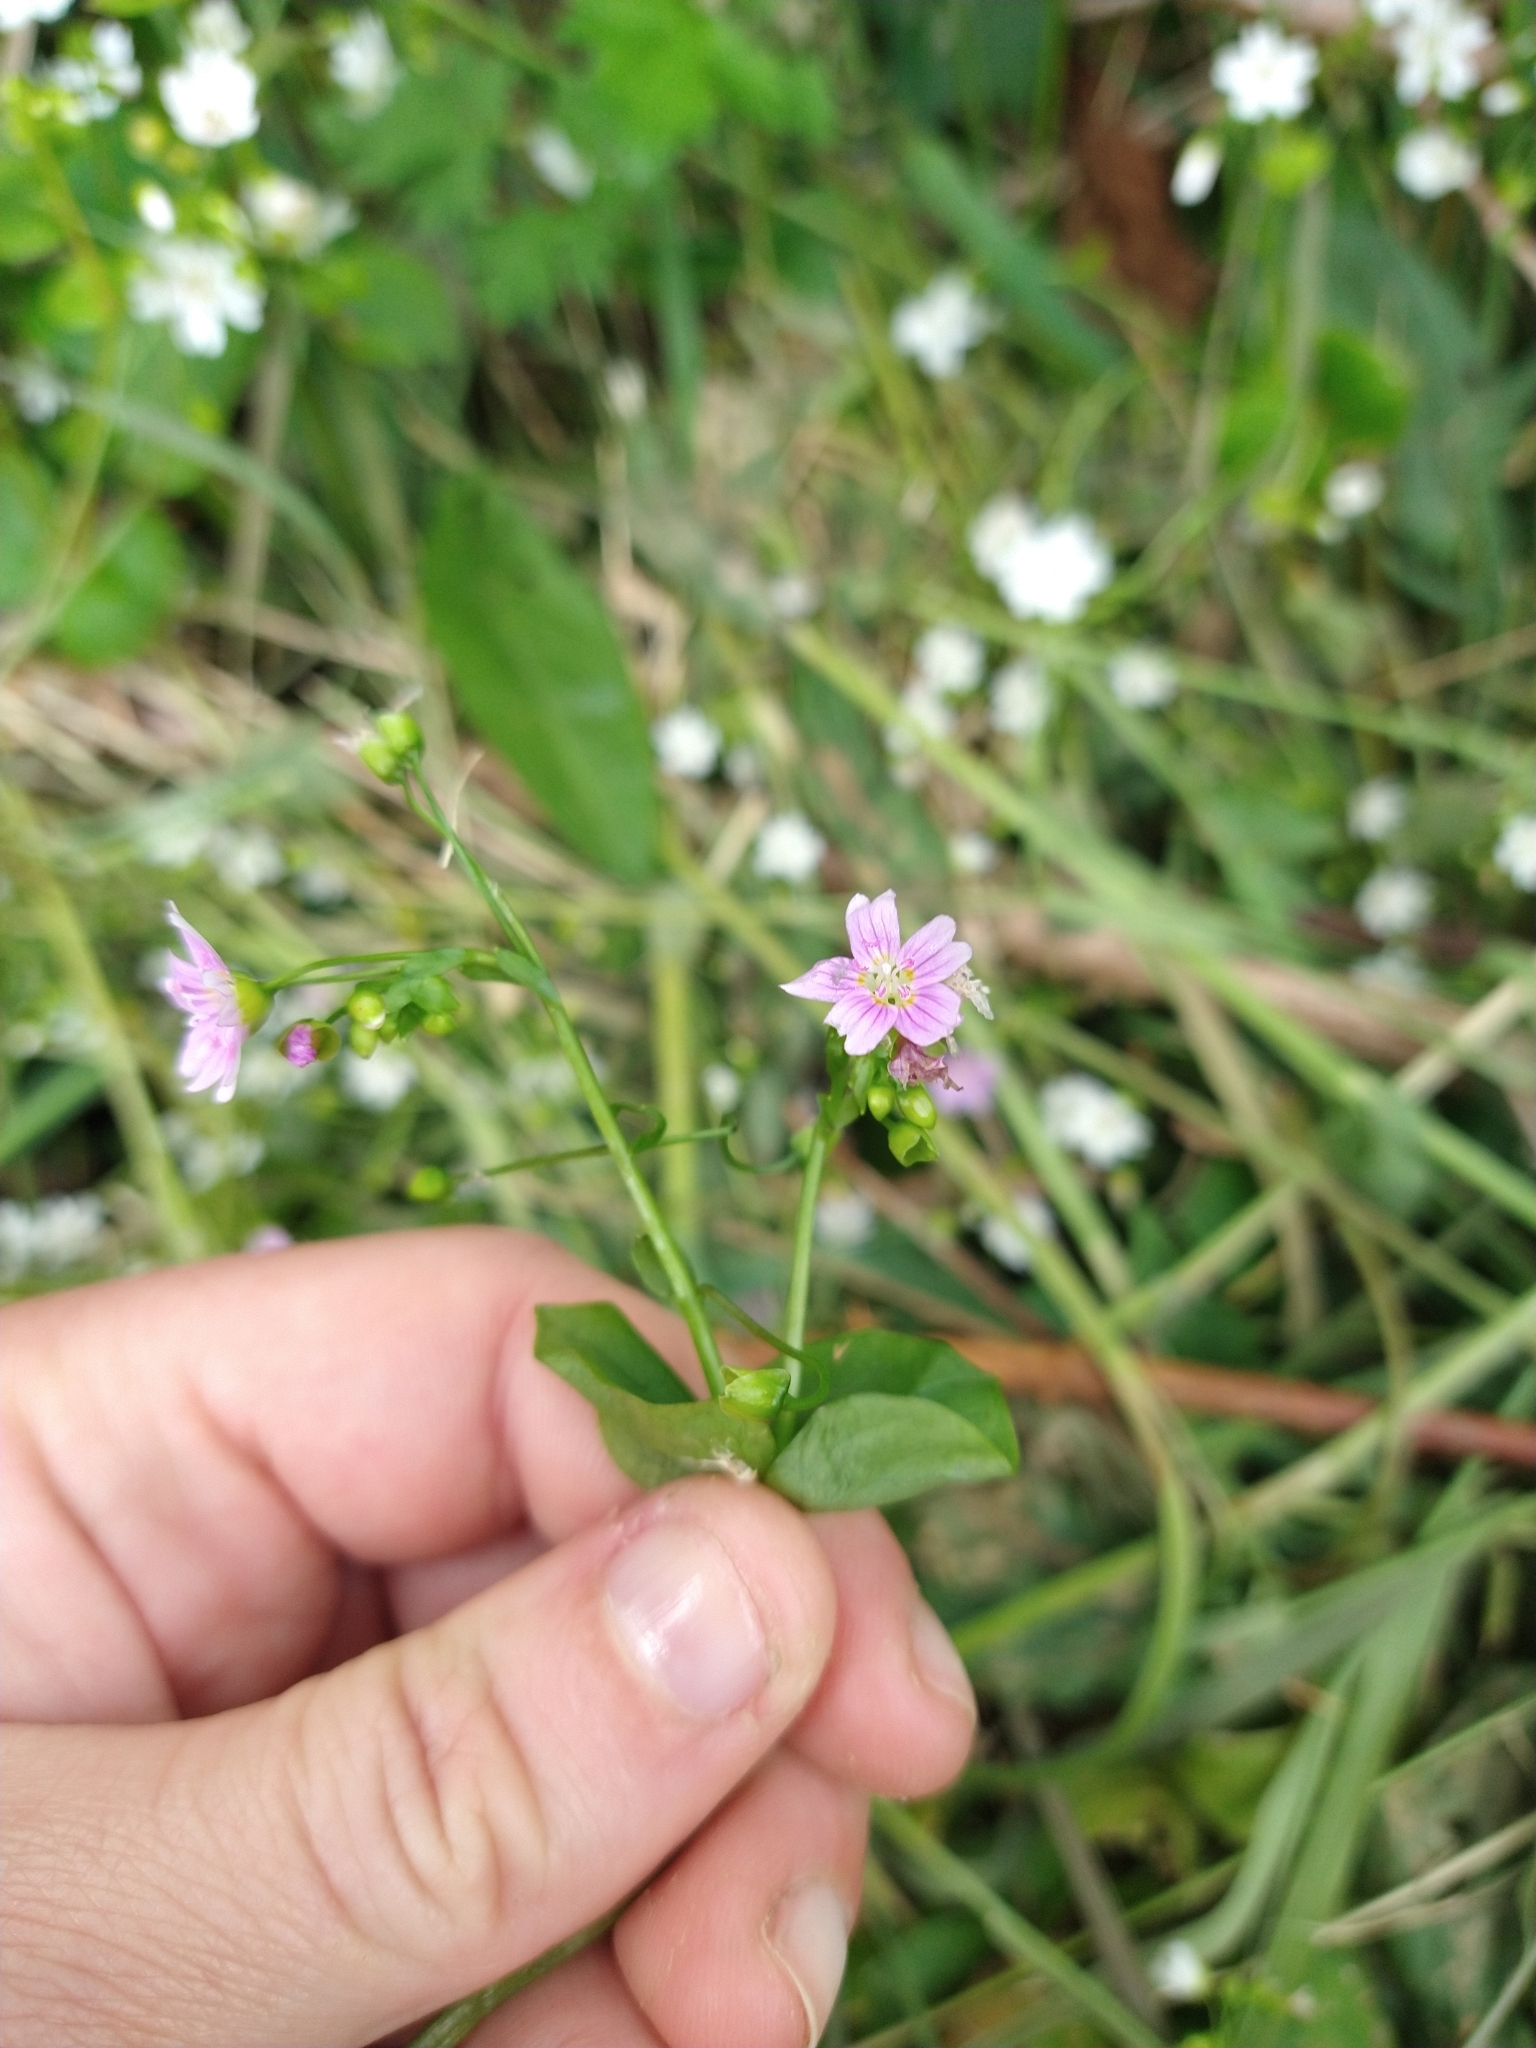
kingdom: Plantae
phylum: Tracheophyta
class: Magnoliopsida
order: Caryophyllales
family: Montiaceae
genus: Claytonia
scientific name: Claytonia sibirica
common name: Pink purslane
